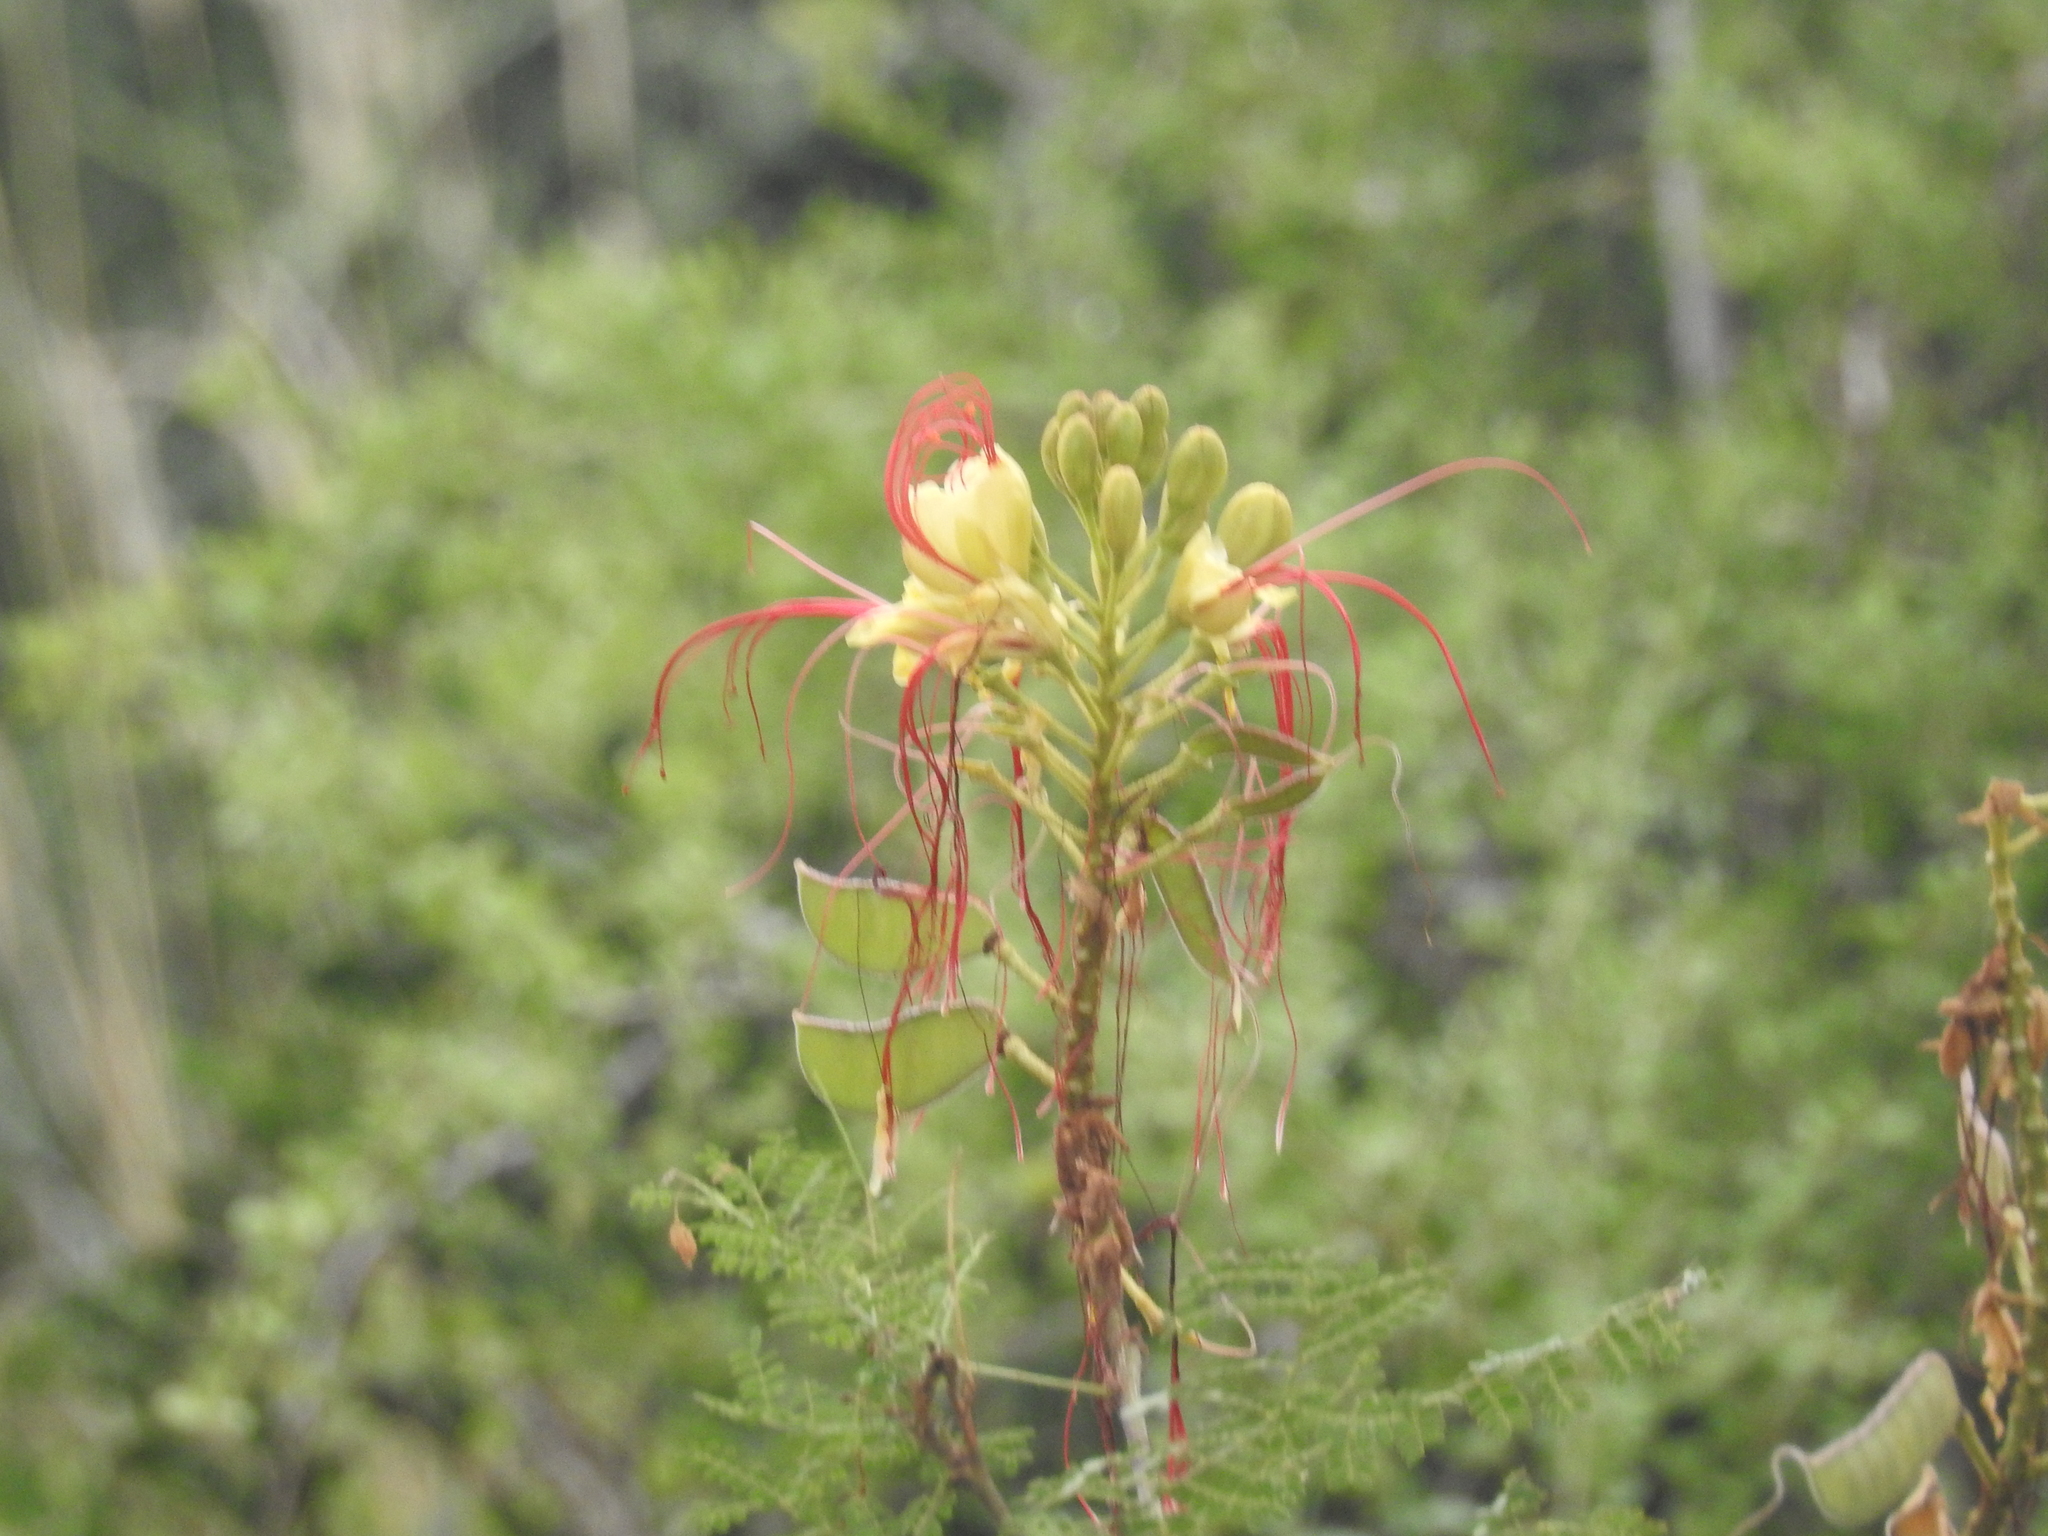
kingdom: Plantae
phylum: Tracheophyta
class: Magnoliopsida
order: Fabales
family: Fabaceae
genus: Erythrostemon
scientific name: Erythrostemon gilliesii
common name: Bird-of-paradise shrub
